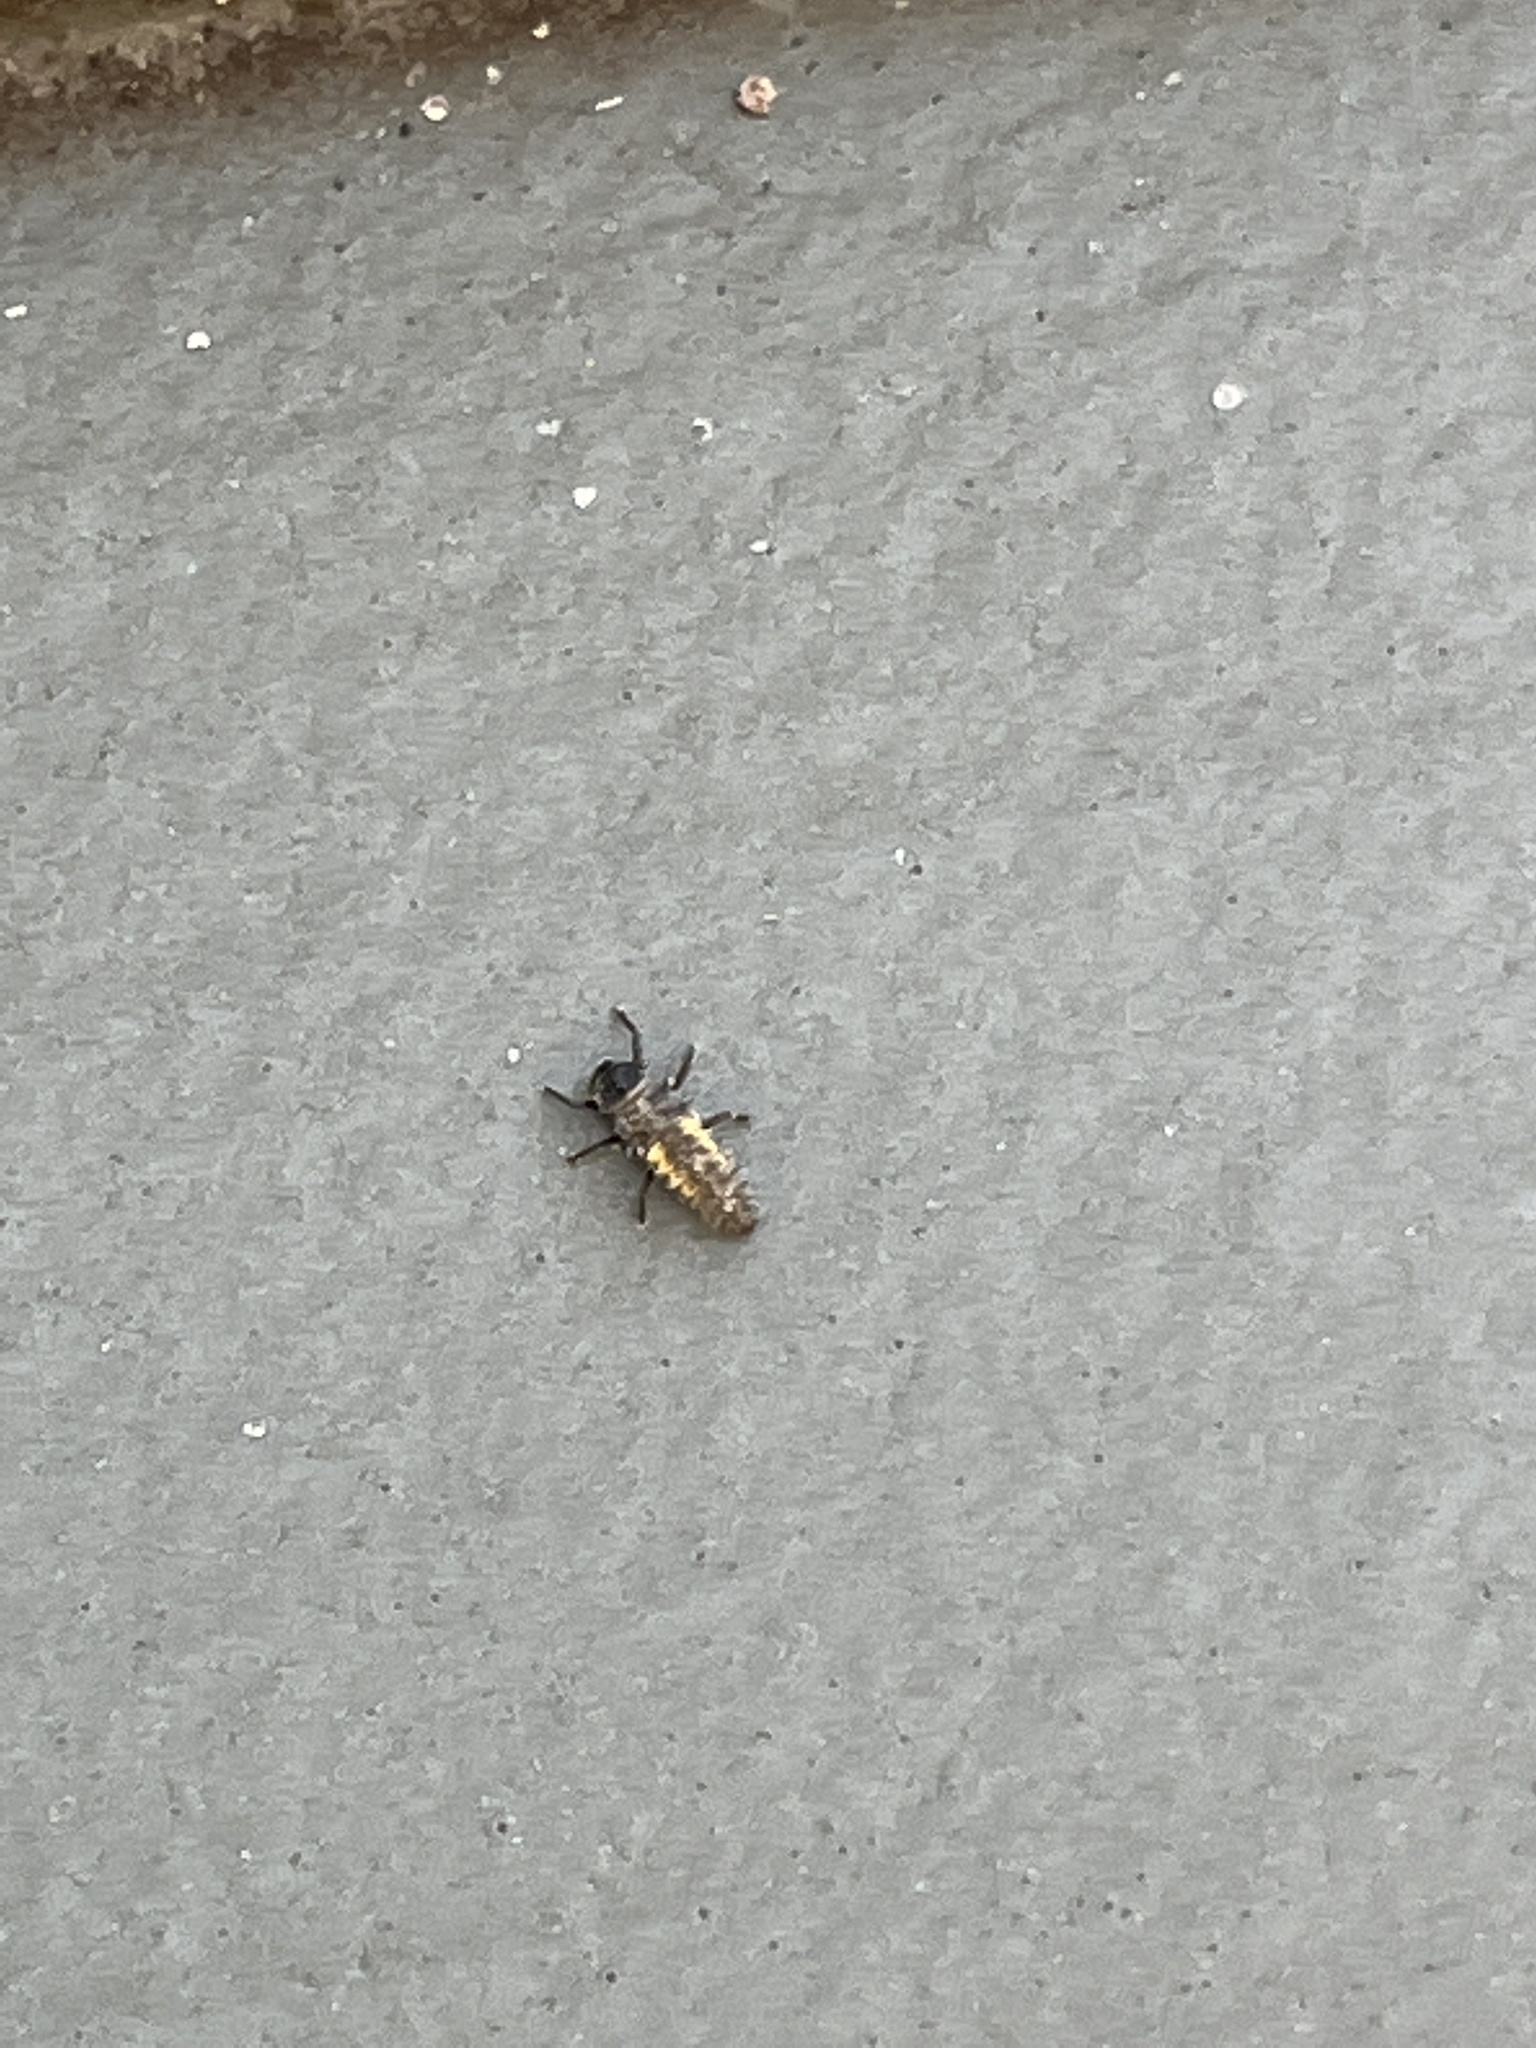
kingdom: Animalia
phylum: Arthropoda
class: Insecta
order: Coleoptera
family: Coccinellidae
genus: Harmonia
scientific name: Harmonia axyridis
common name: Harlequin ladybird
